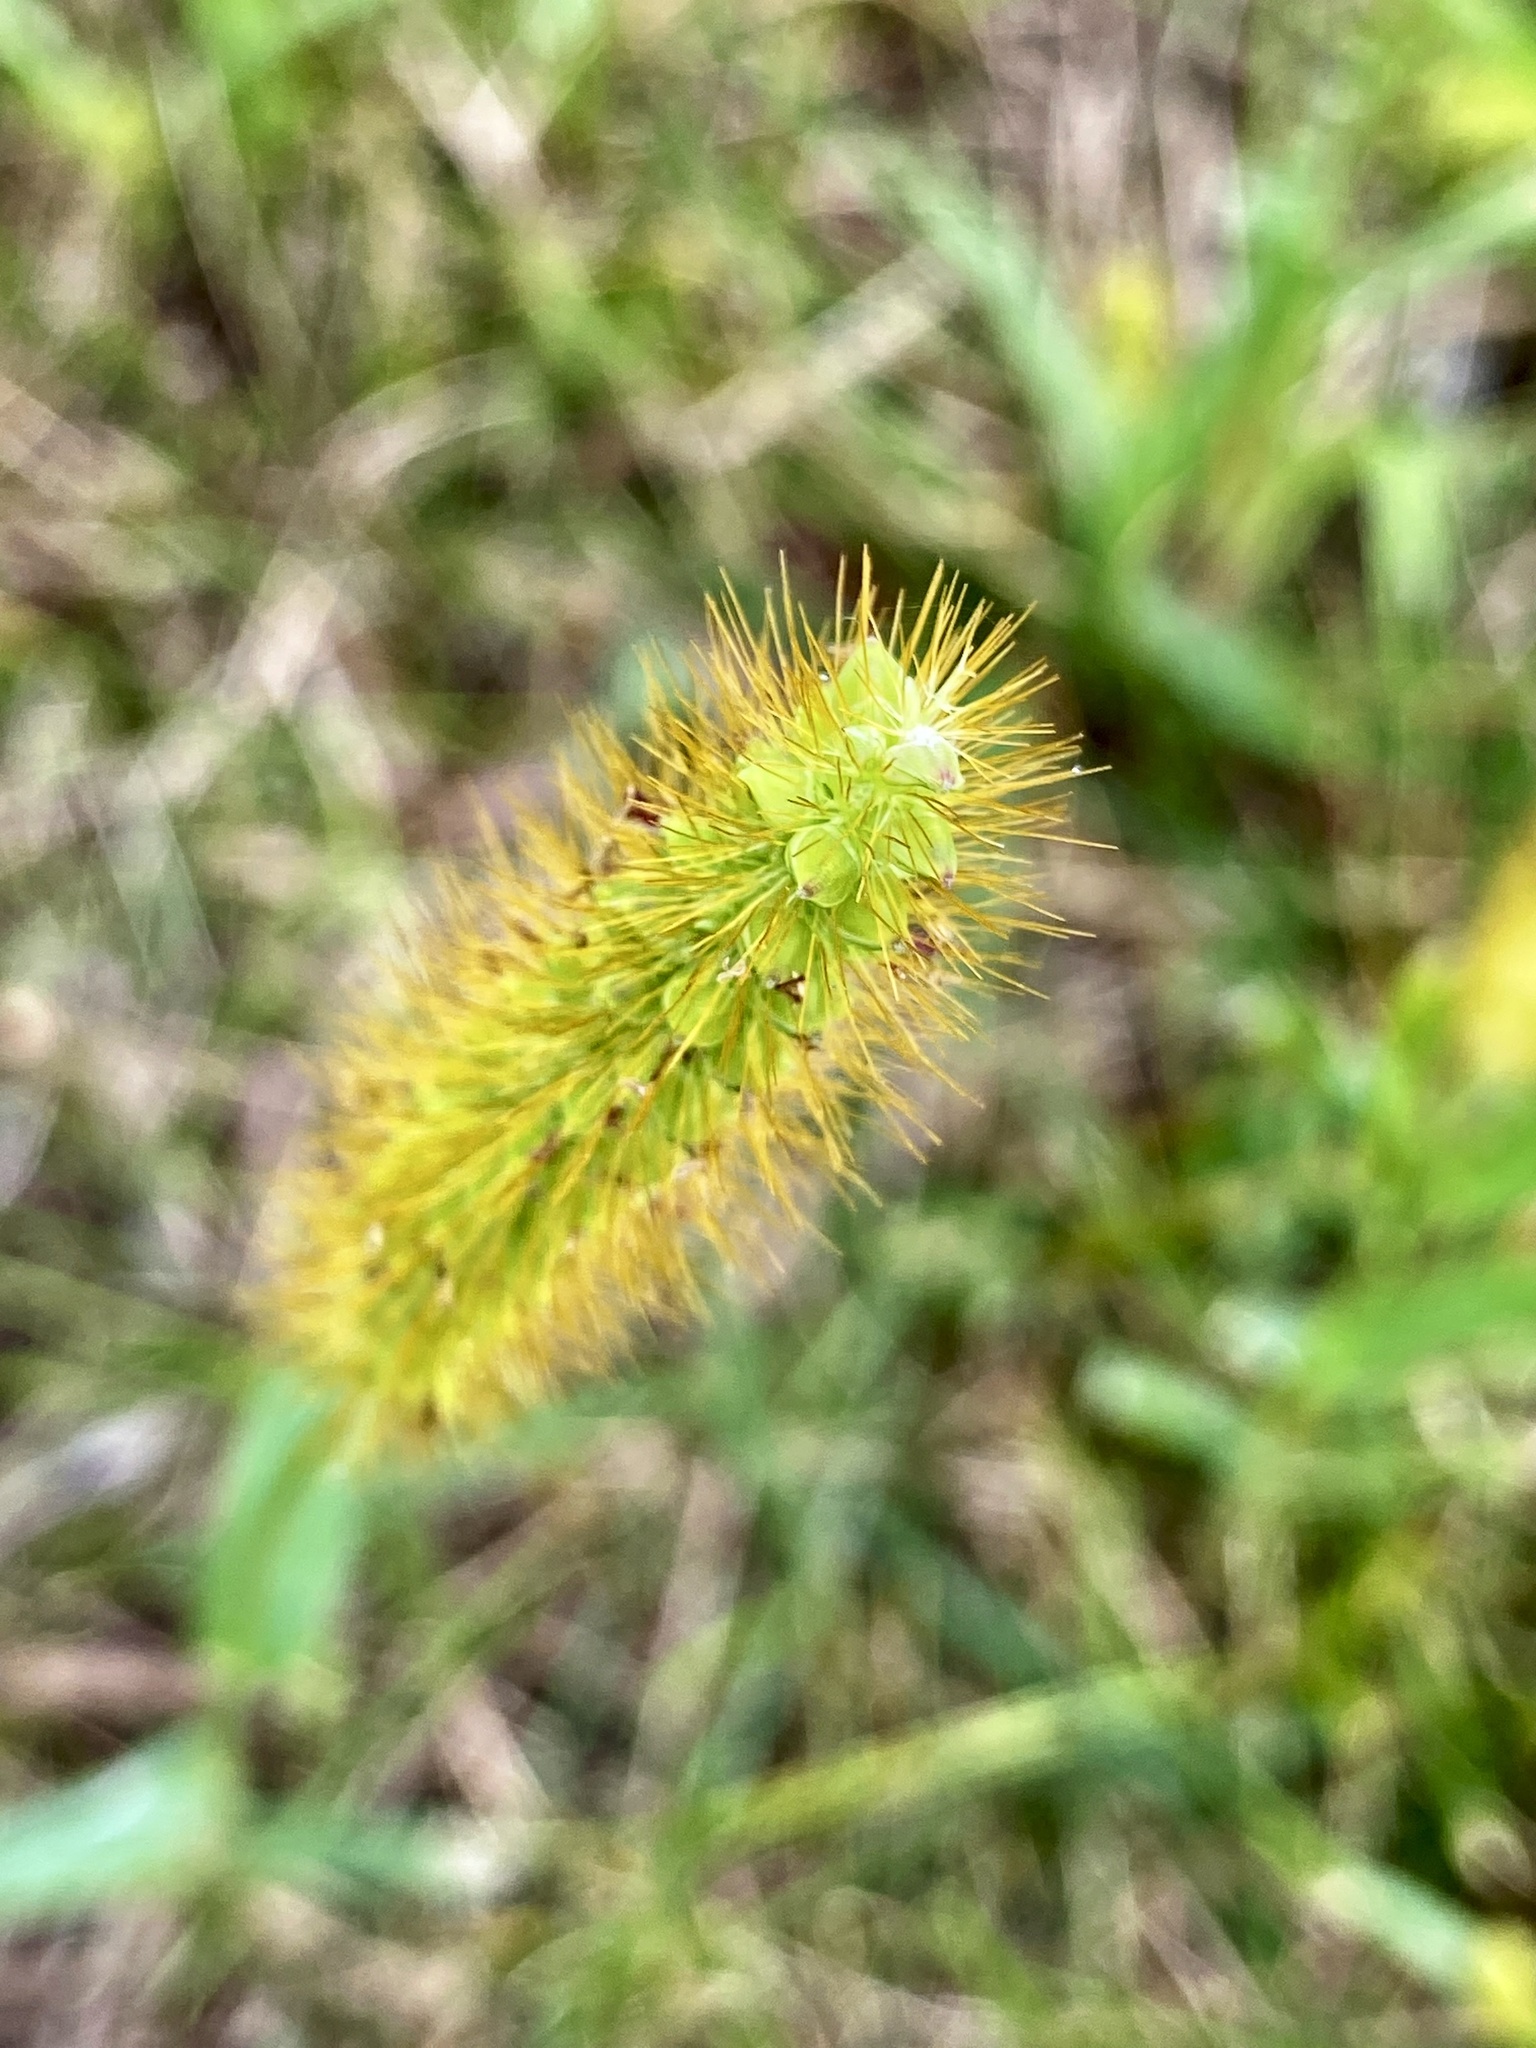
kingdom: Plantae
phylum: Tracheophyta
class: Liliopsida
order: Poales
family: Poaceae
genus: Setaria
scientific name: Setaria pumila
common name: Yellow bristle-grass
